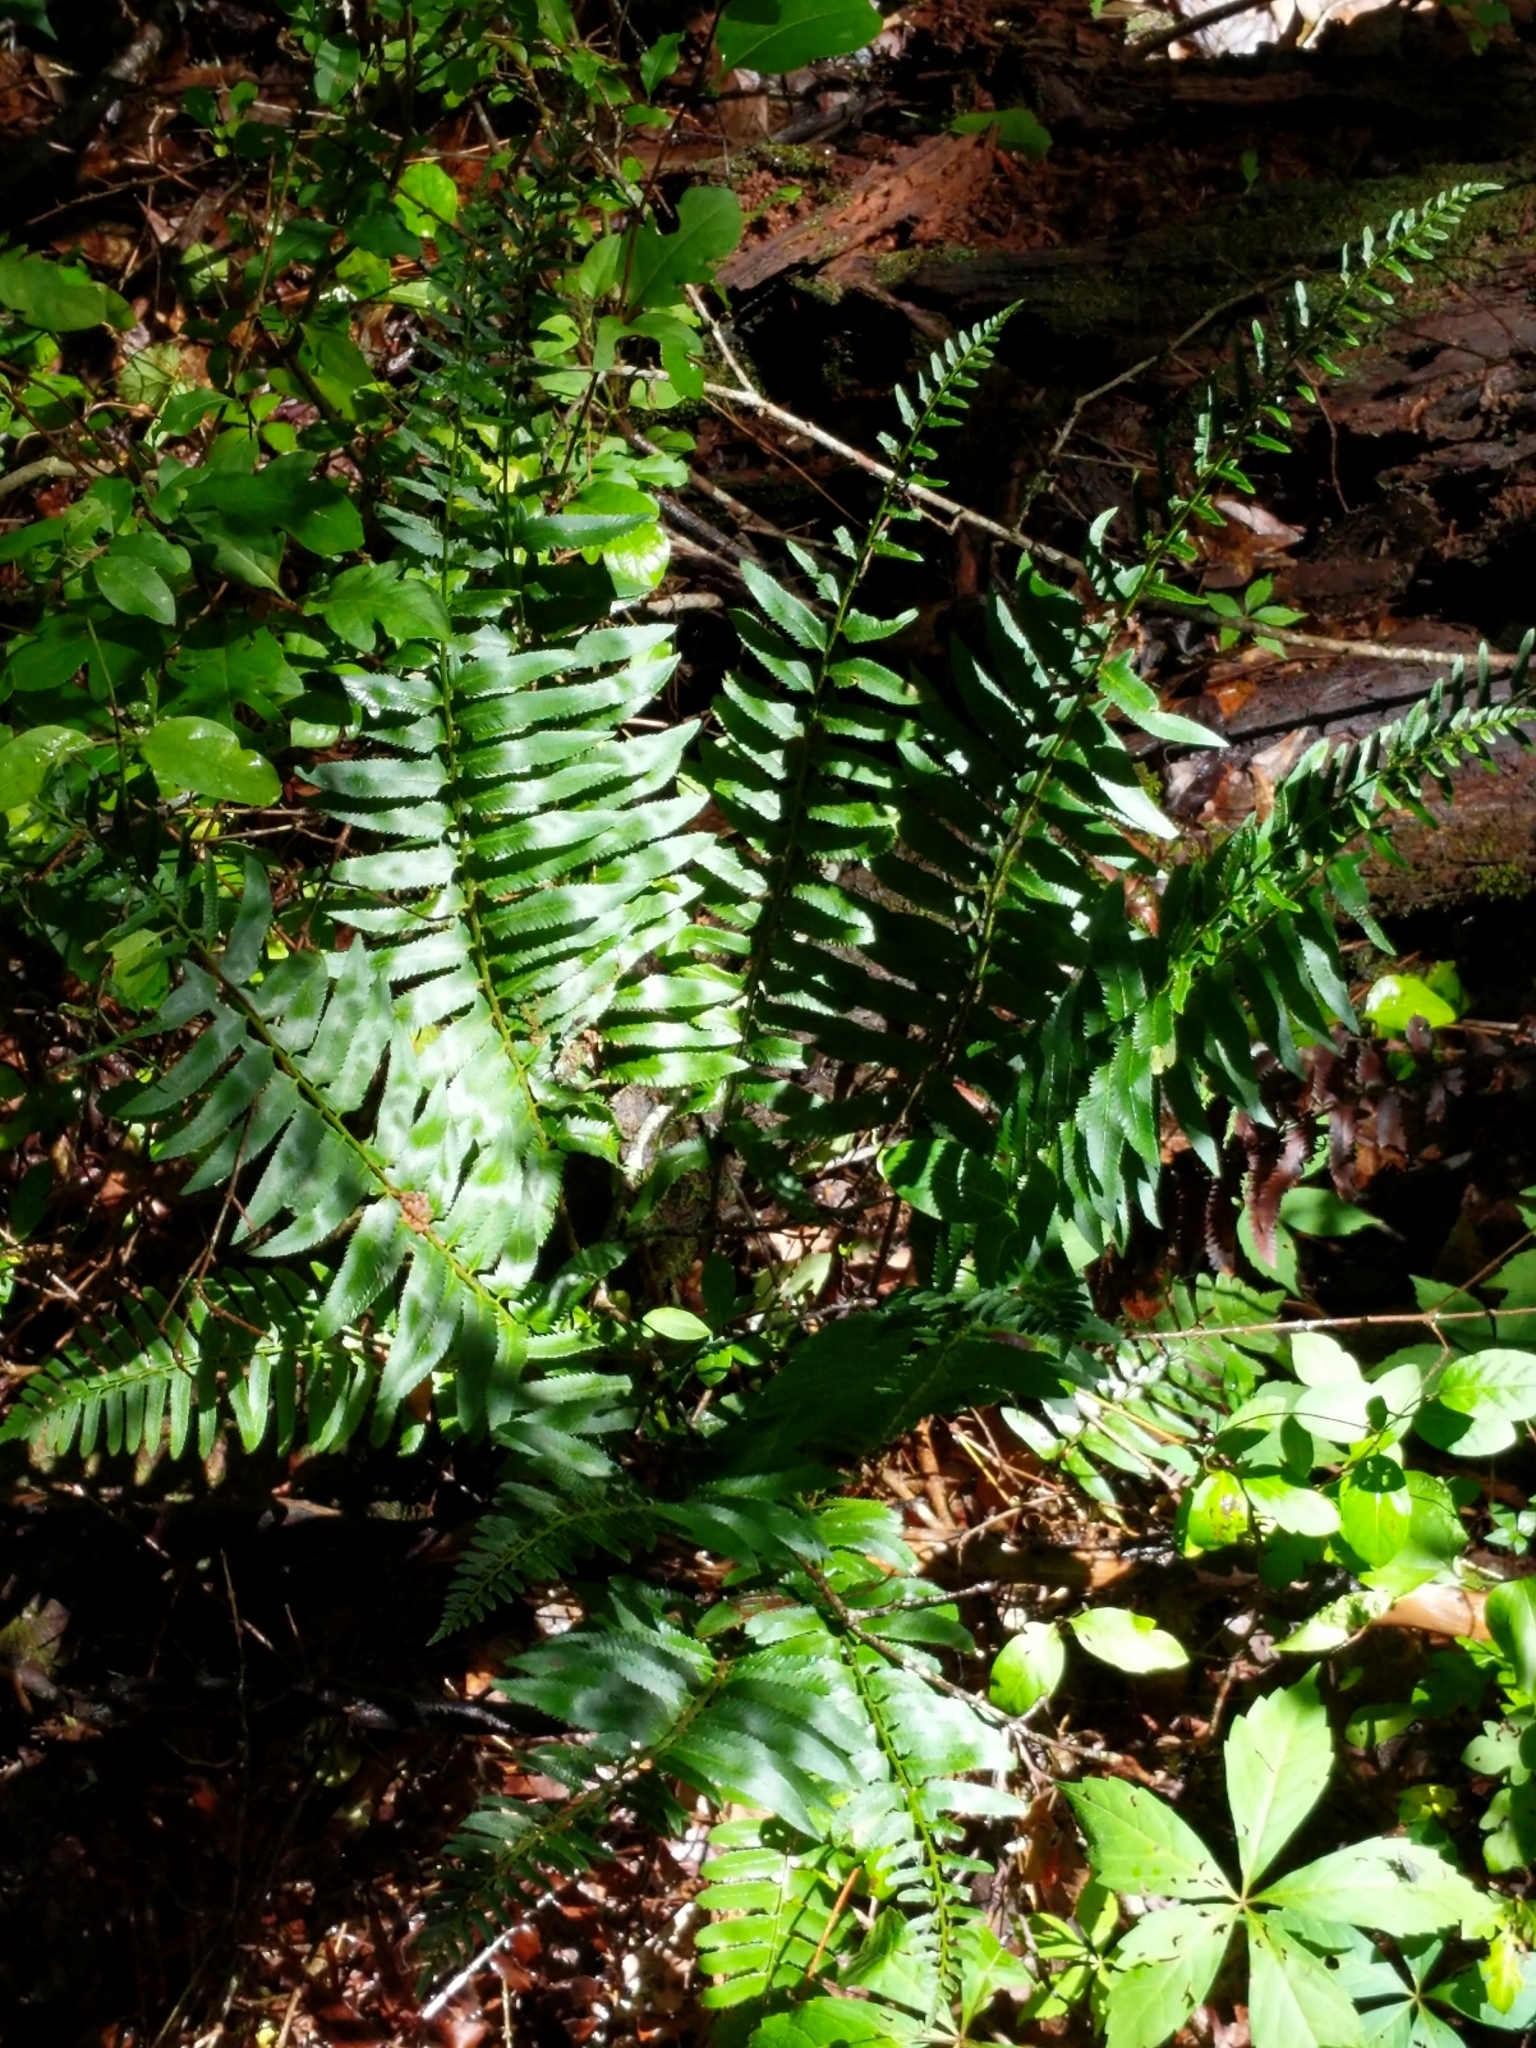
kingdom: Plantae
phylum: Tracheophyta
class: Polypodiopsida
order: Polypodiales
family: Dryopteridaceae
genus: Polystichum
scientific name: Polystichum acrostichoides
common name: Christmas fern
